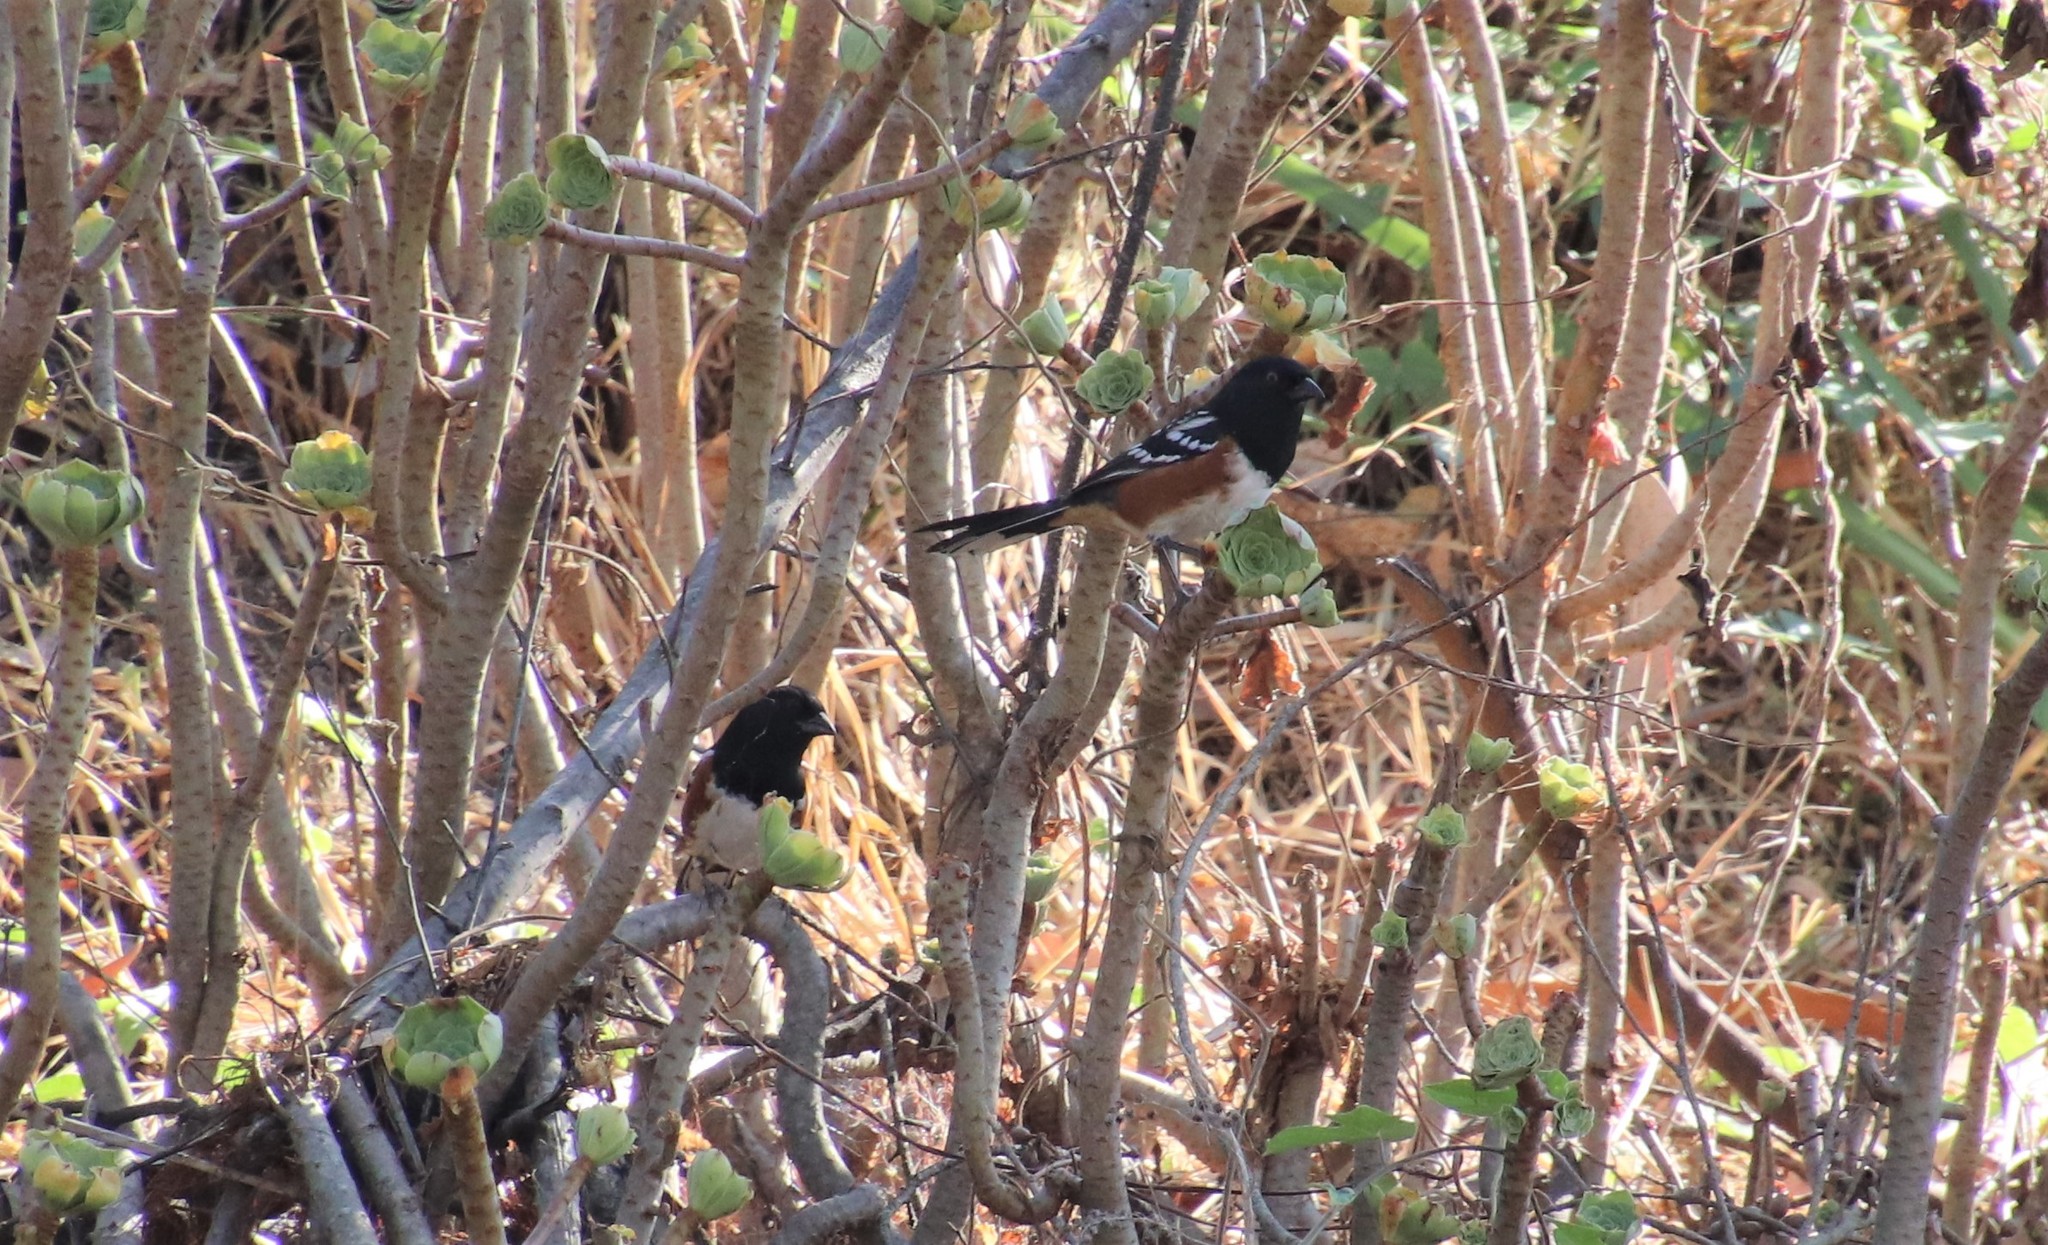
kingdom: Animalia
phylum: Chordata
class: Aves
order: Passeriformes
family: Passerellidae
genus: Pipilo
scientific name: Pipilo maculatus
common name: Spotted towhee
